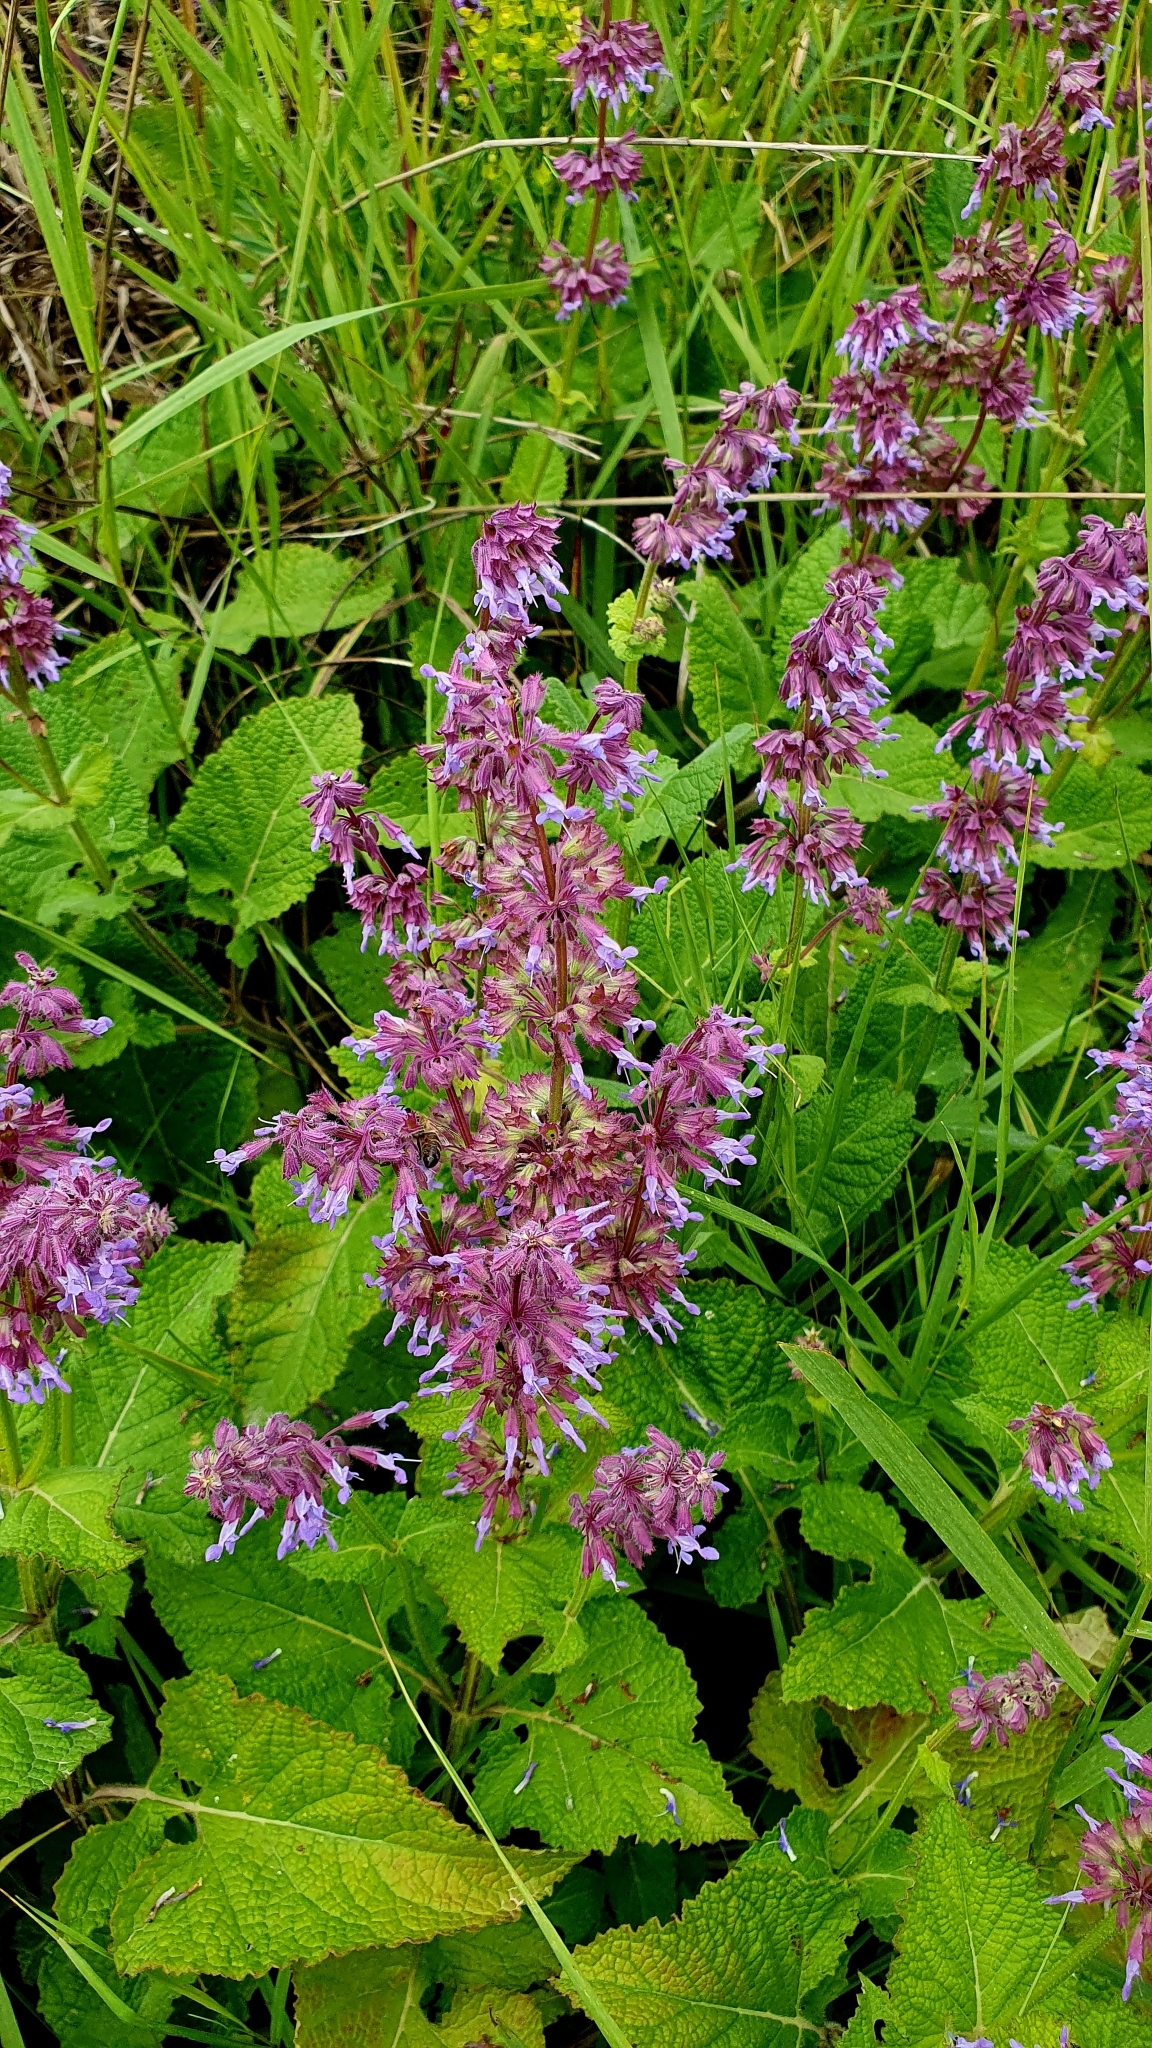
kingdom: Plantae
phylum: Tracheophyta
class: Magnoliopsida
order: Lamiales
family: Lamiaceae
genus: Salvia
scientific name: Salvia verticillata
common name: Whorled clary
